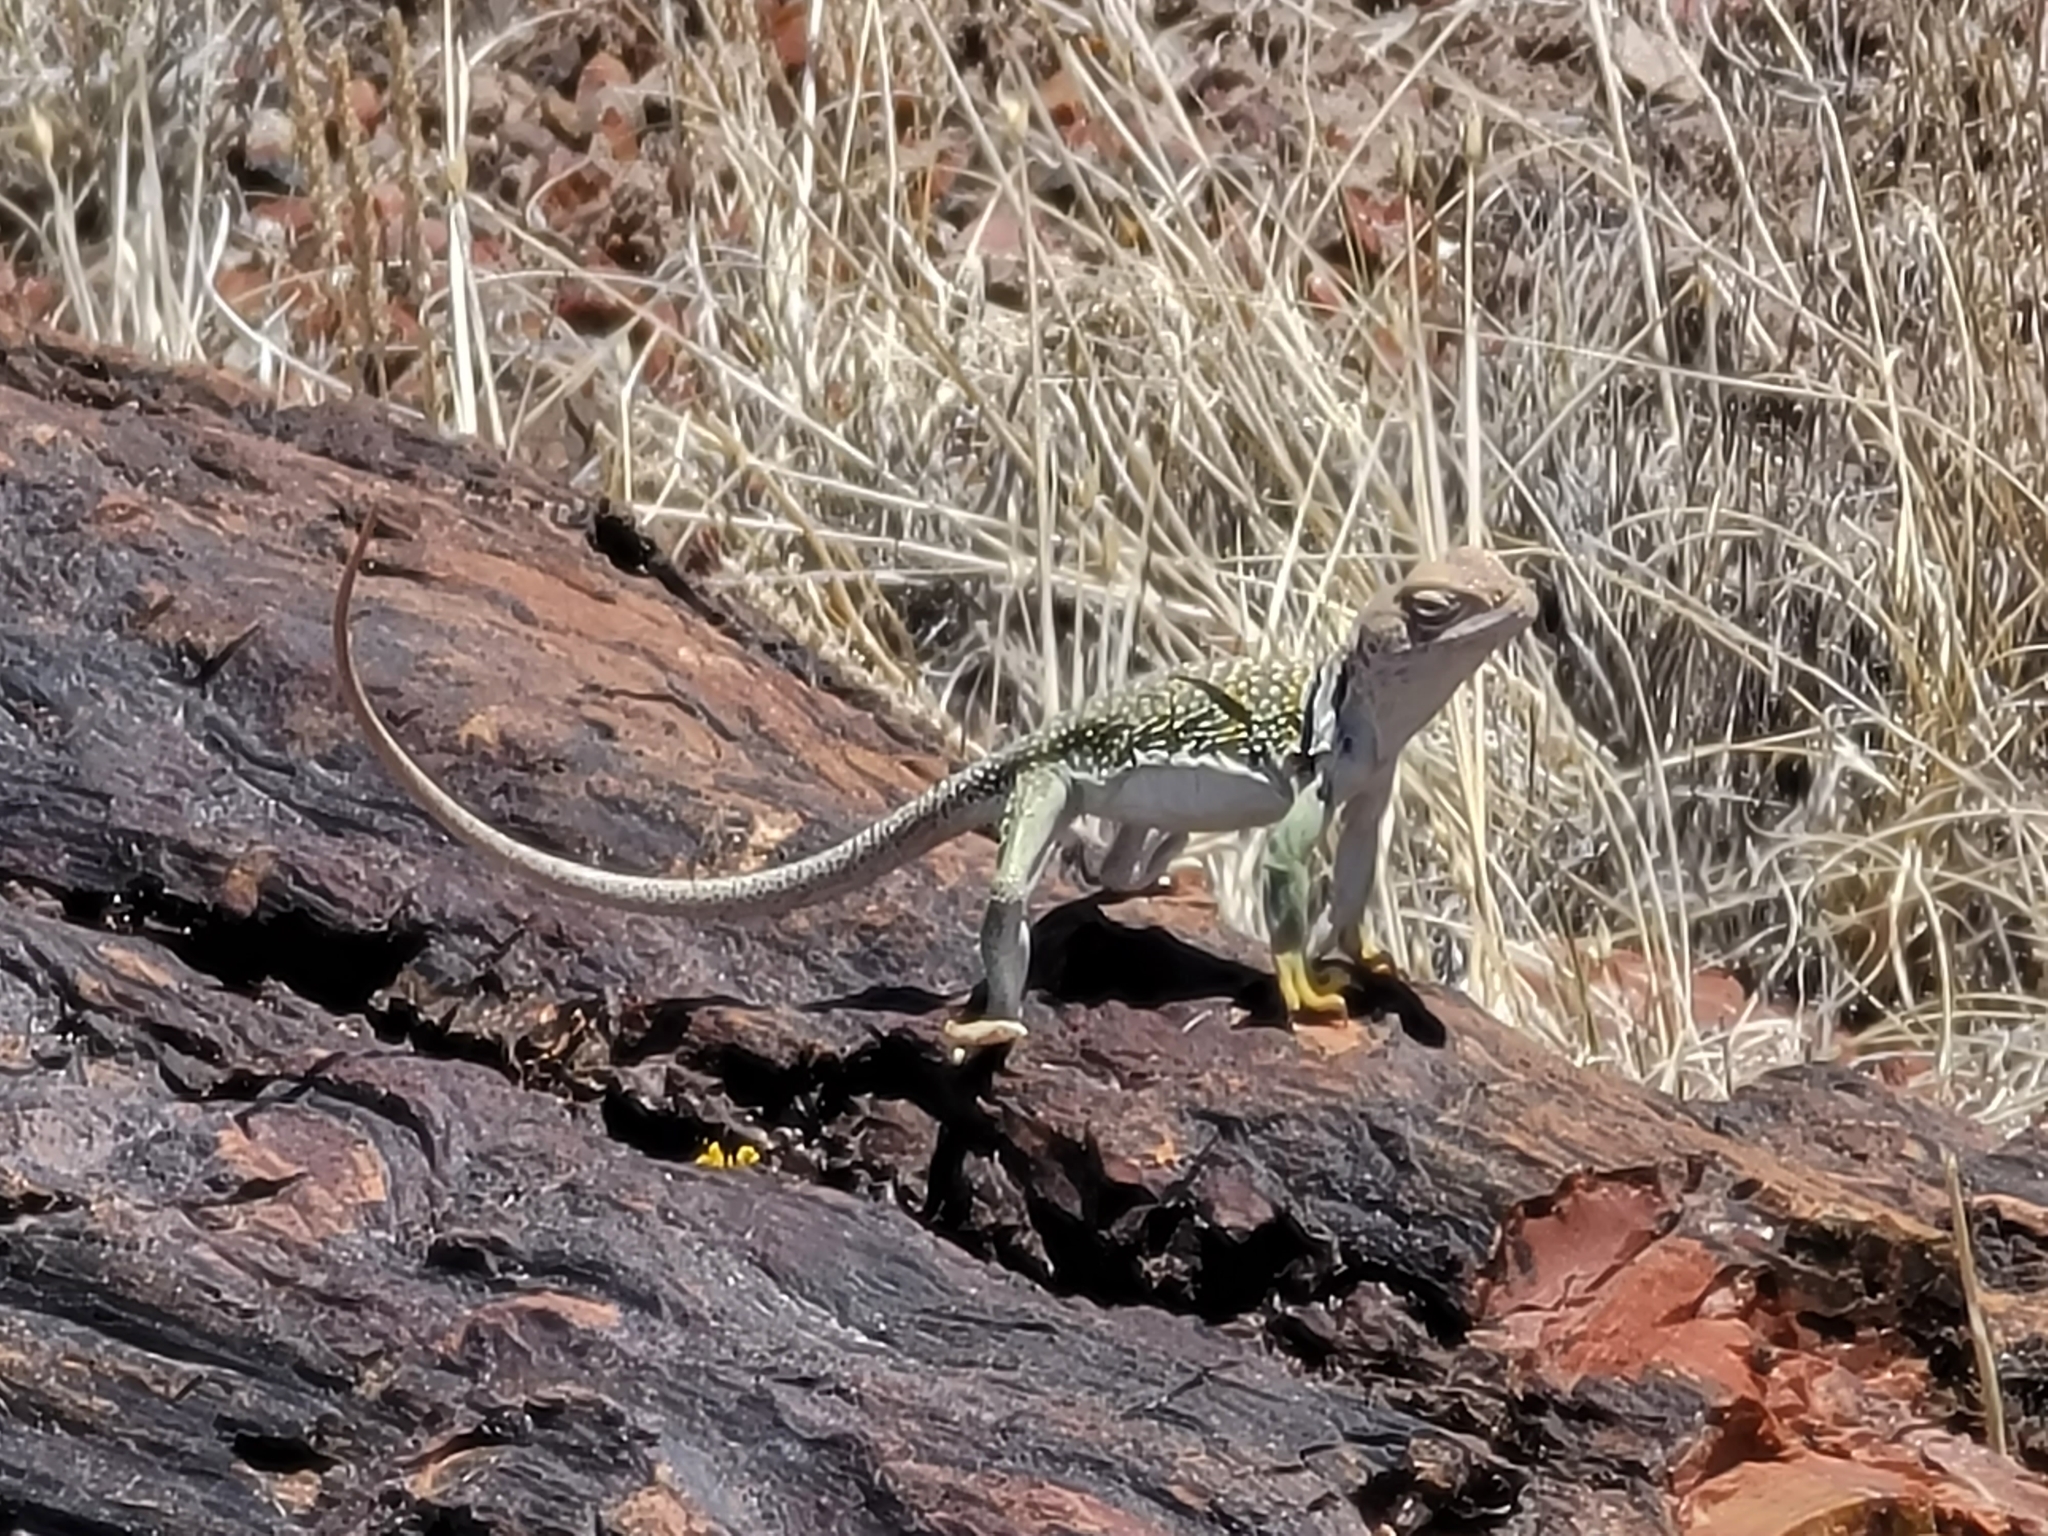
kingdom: Animalia
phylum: Chordata
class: Squamata
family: Crotaphytidae
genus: Crotaphytus
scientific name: Crotaphytus collaris
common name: Collared lizard
